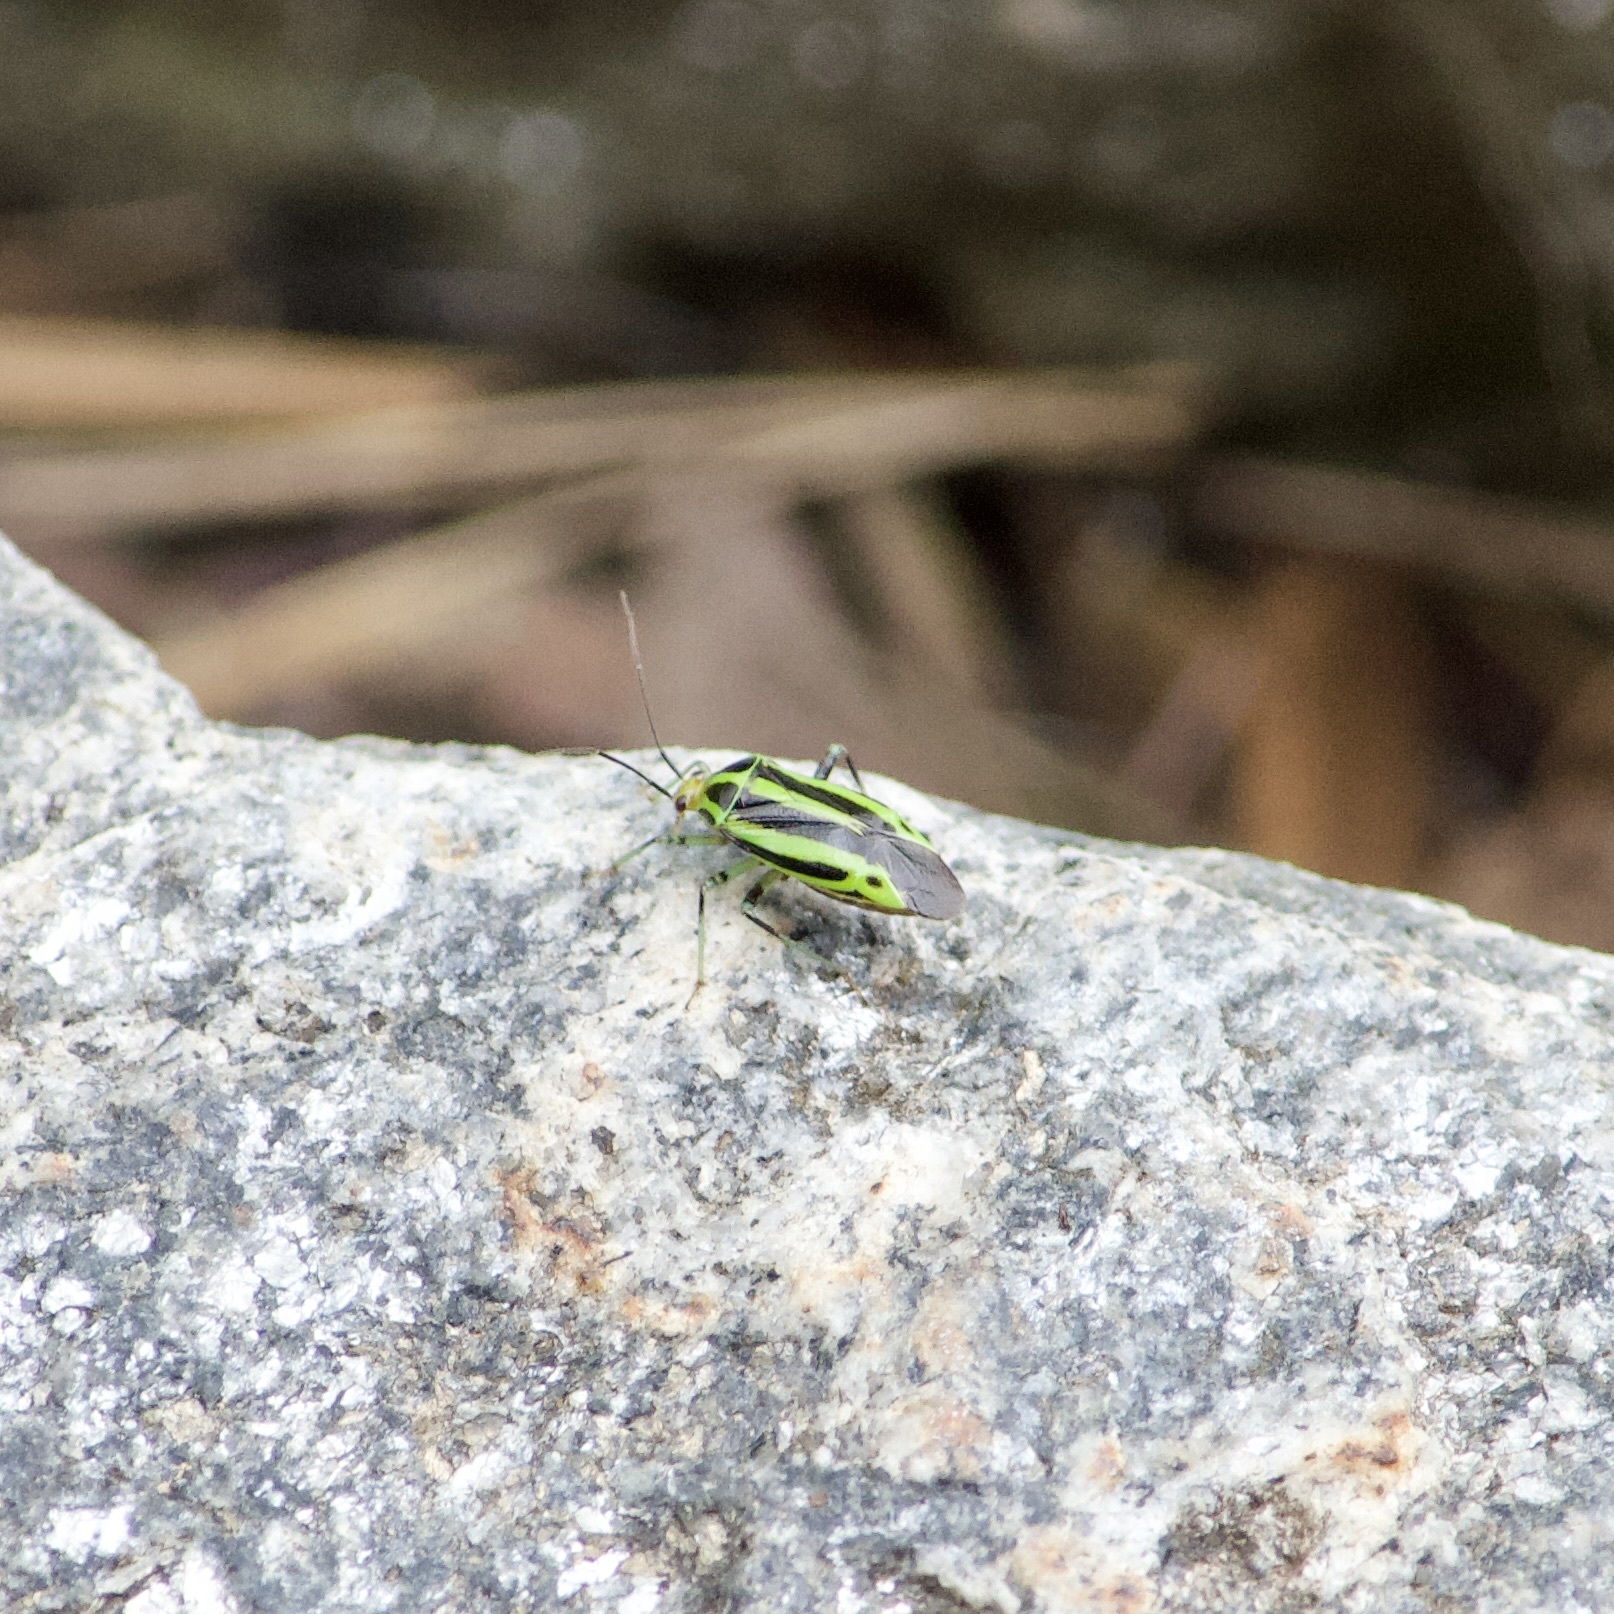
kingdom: Animalia
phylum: Arthropoda
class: Insecta
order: Hemiptera
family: Miridae
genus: Poecilocapsus
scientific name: Poecilocapsus lineatus
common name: Four-lined plant bug
